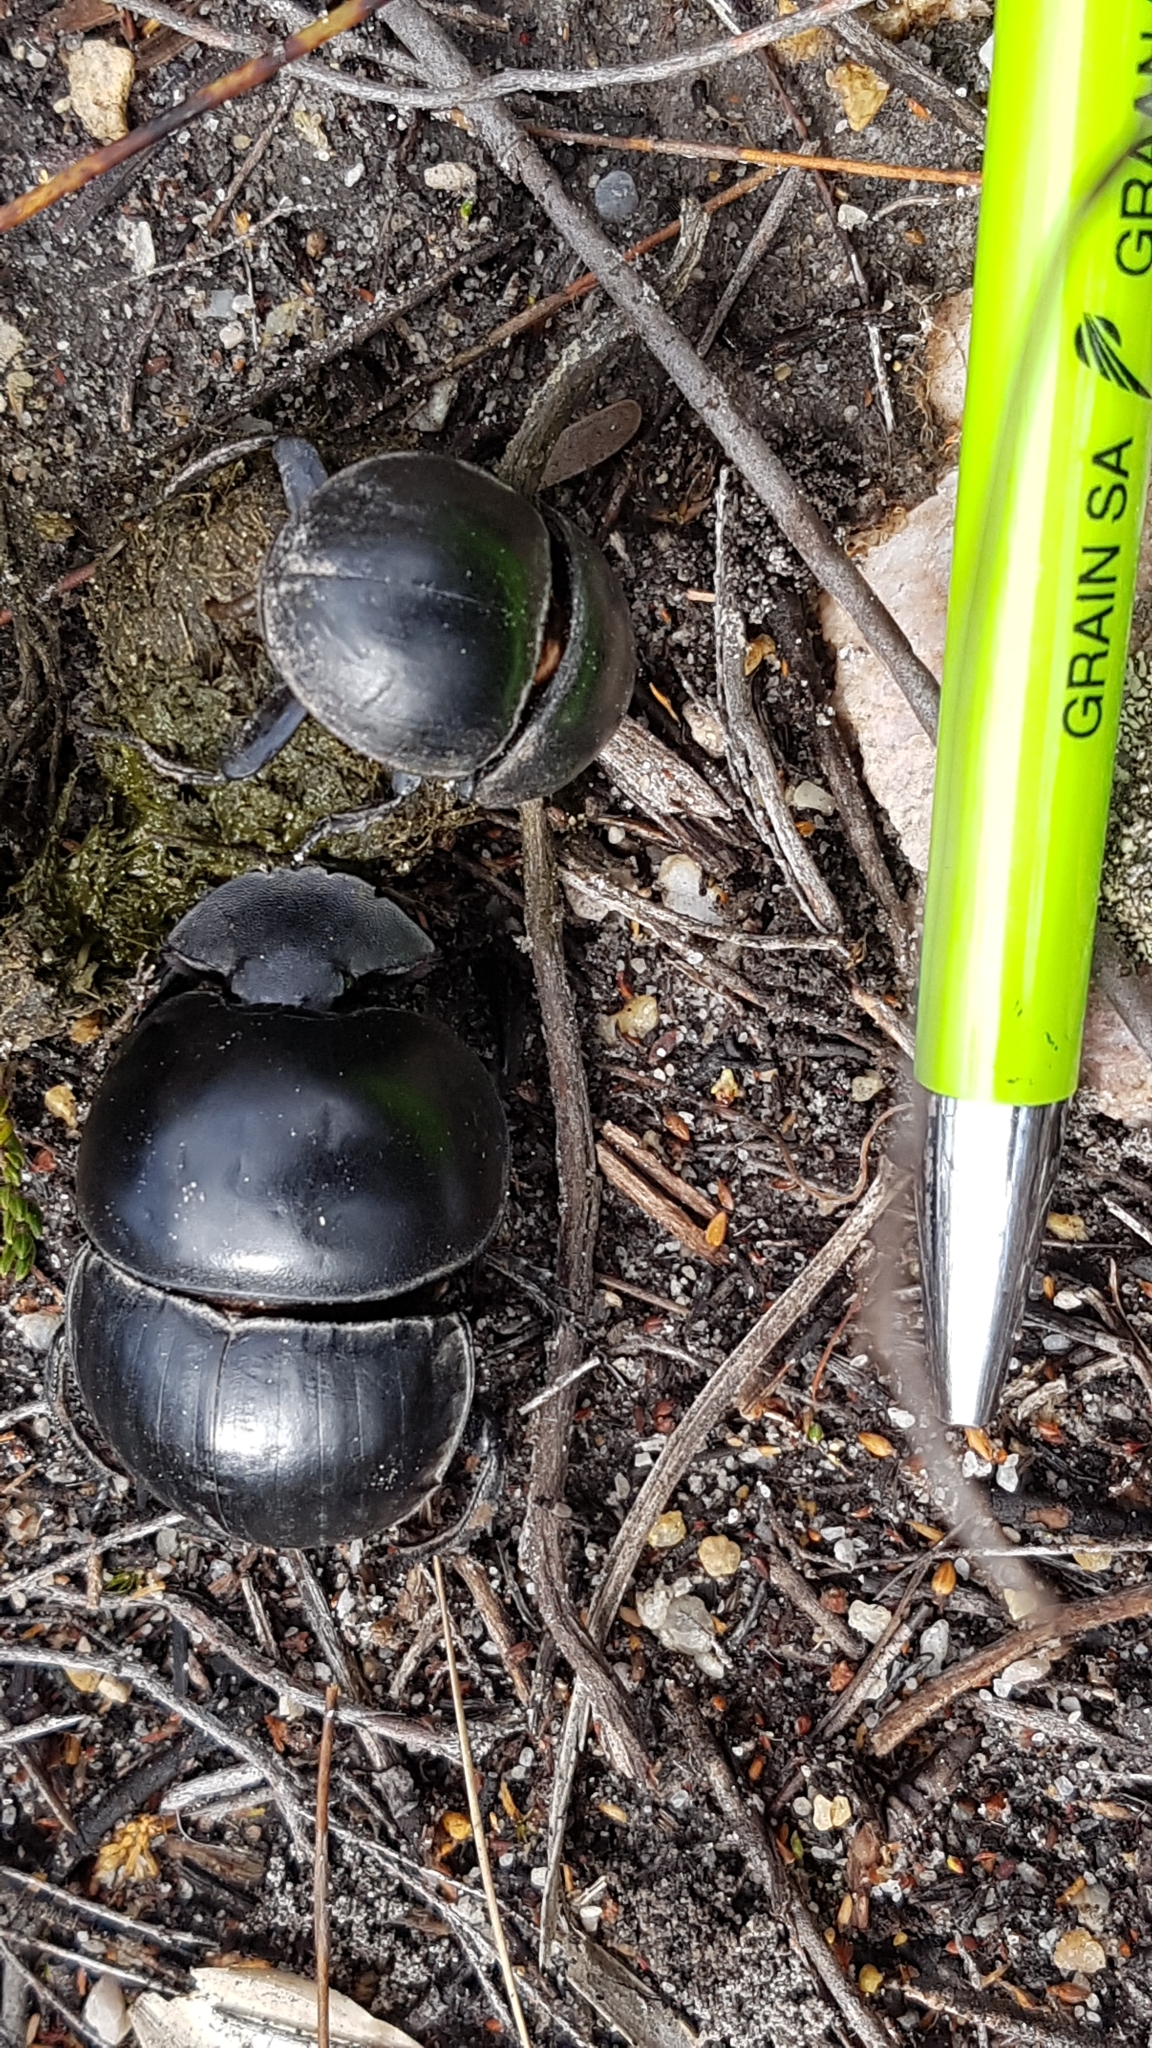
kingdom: Animalia
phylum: Arthropoda
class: Insecta
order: Coleoptera
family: Scarabaeidae
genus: Circellium
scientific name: Circellium bacchus
